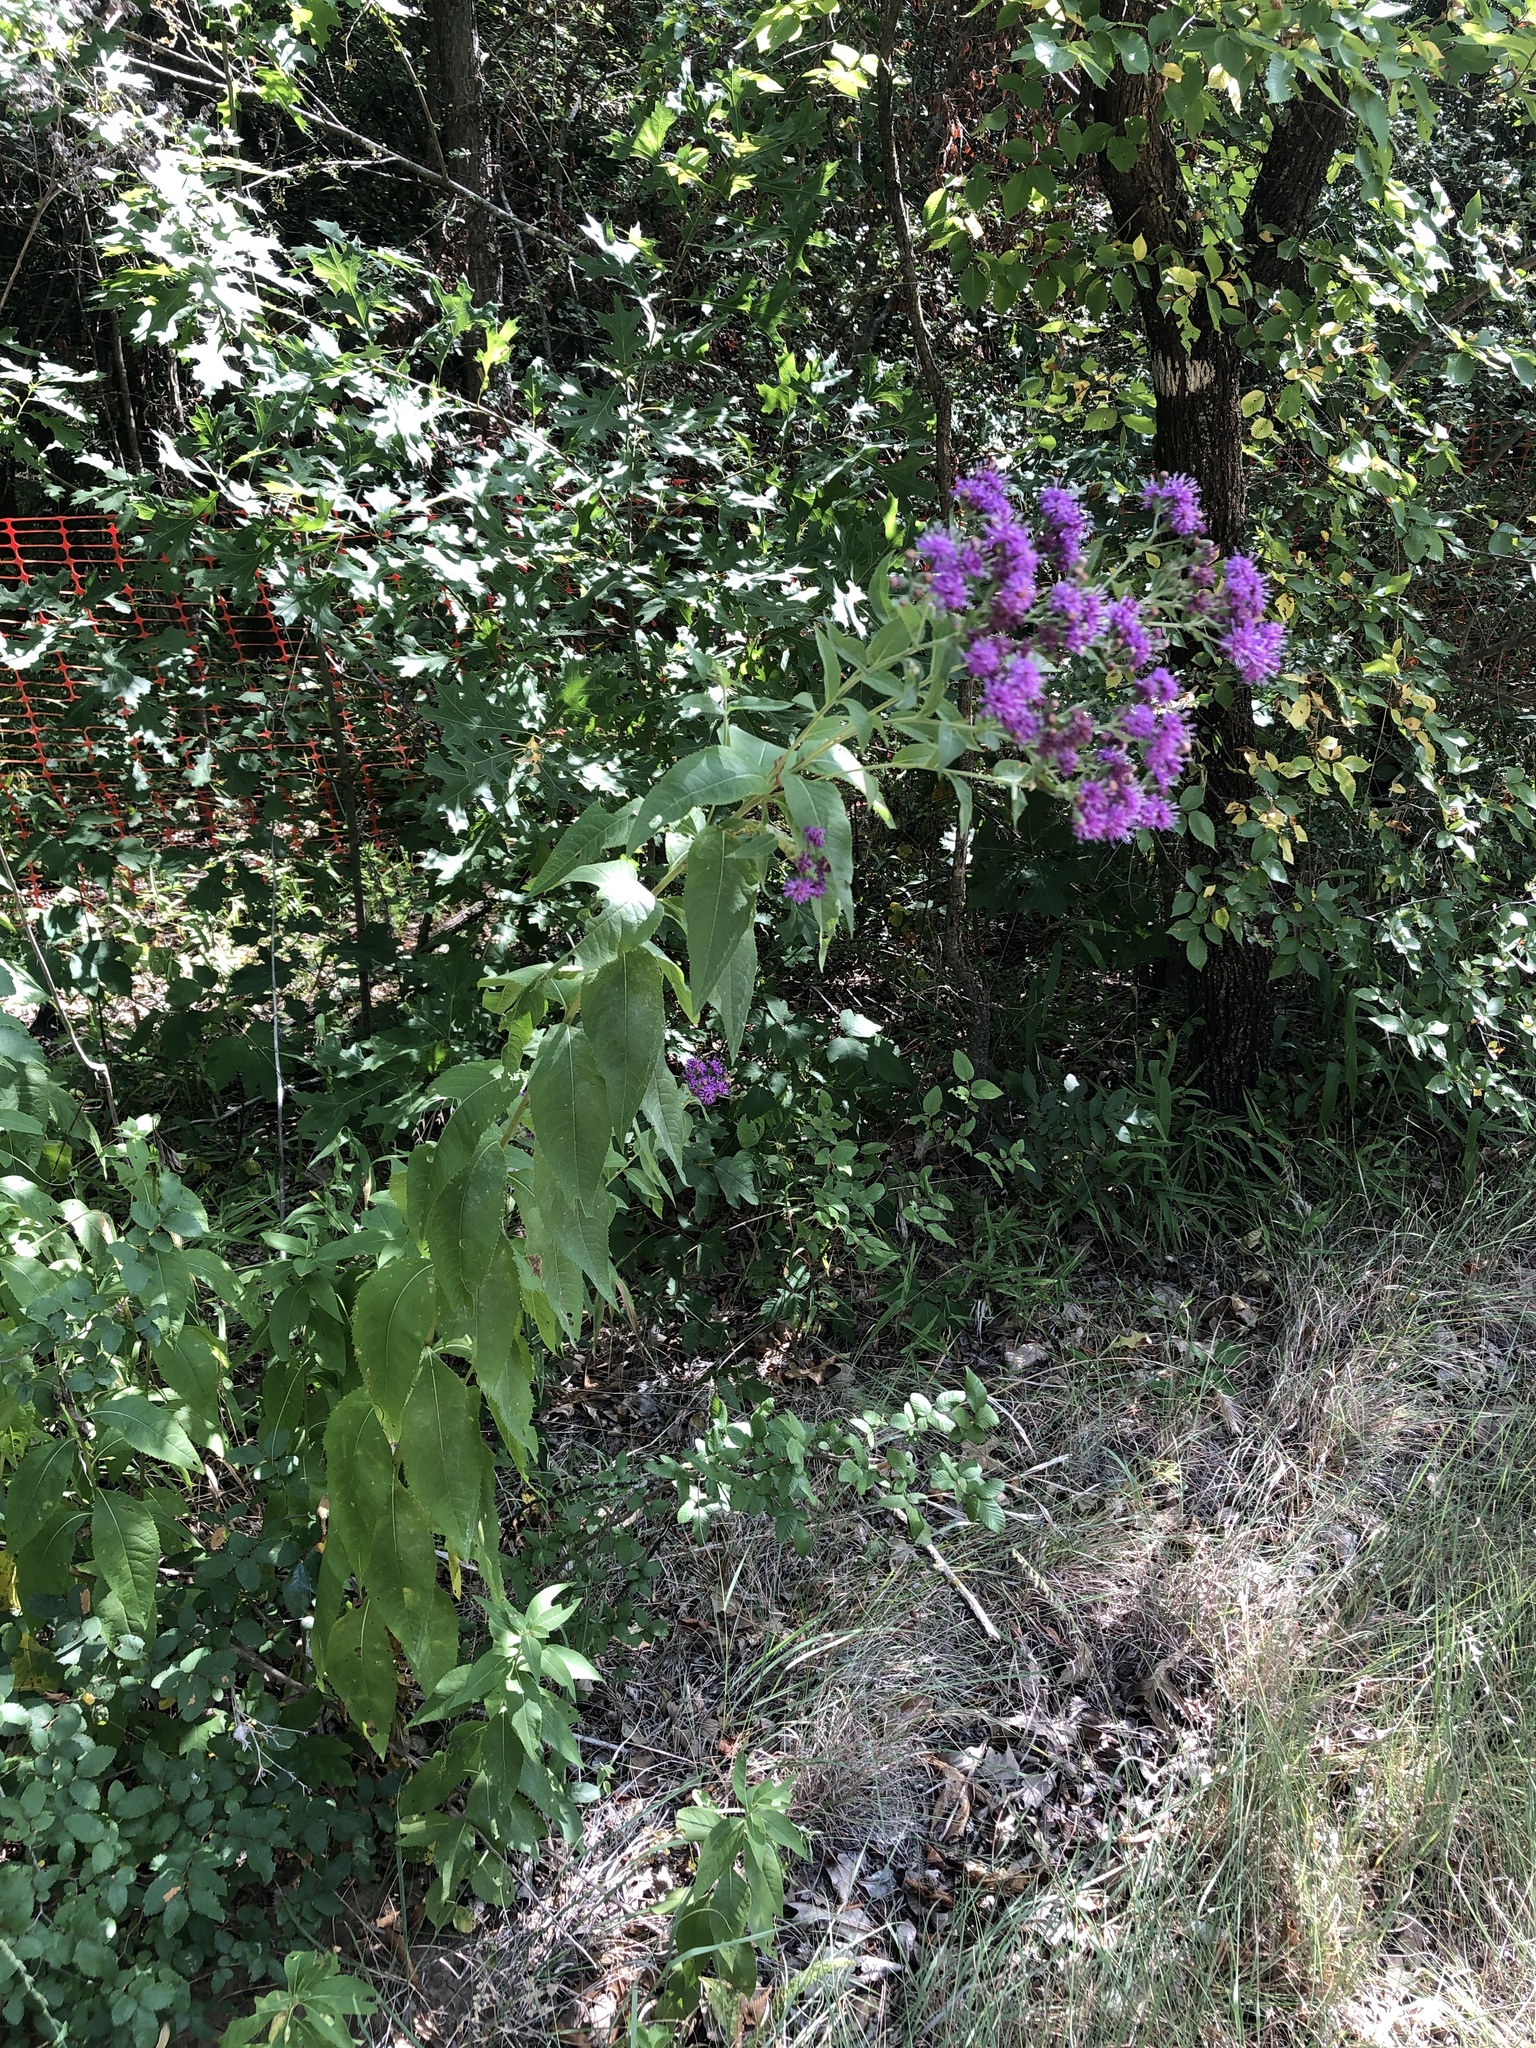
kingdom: Plantae
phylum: Tracheophyta
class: Magnoliopsida
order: Asterales
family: Asteraceae
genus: Vernonia
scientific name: Vernonia baldwinii
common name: Western ironweed
